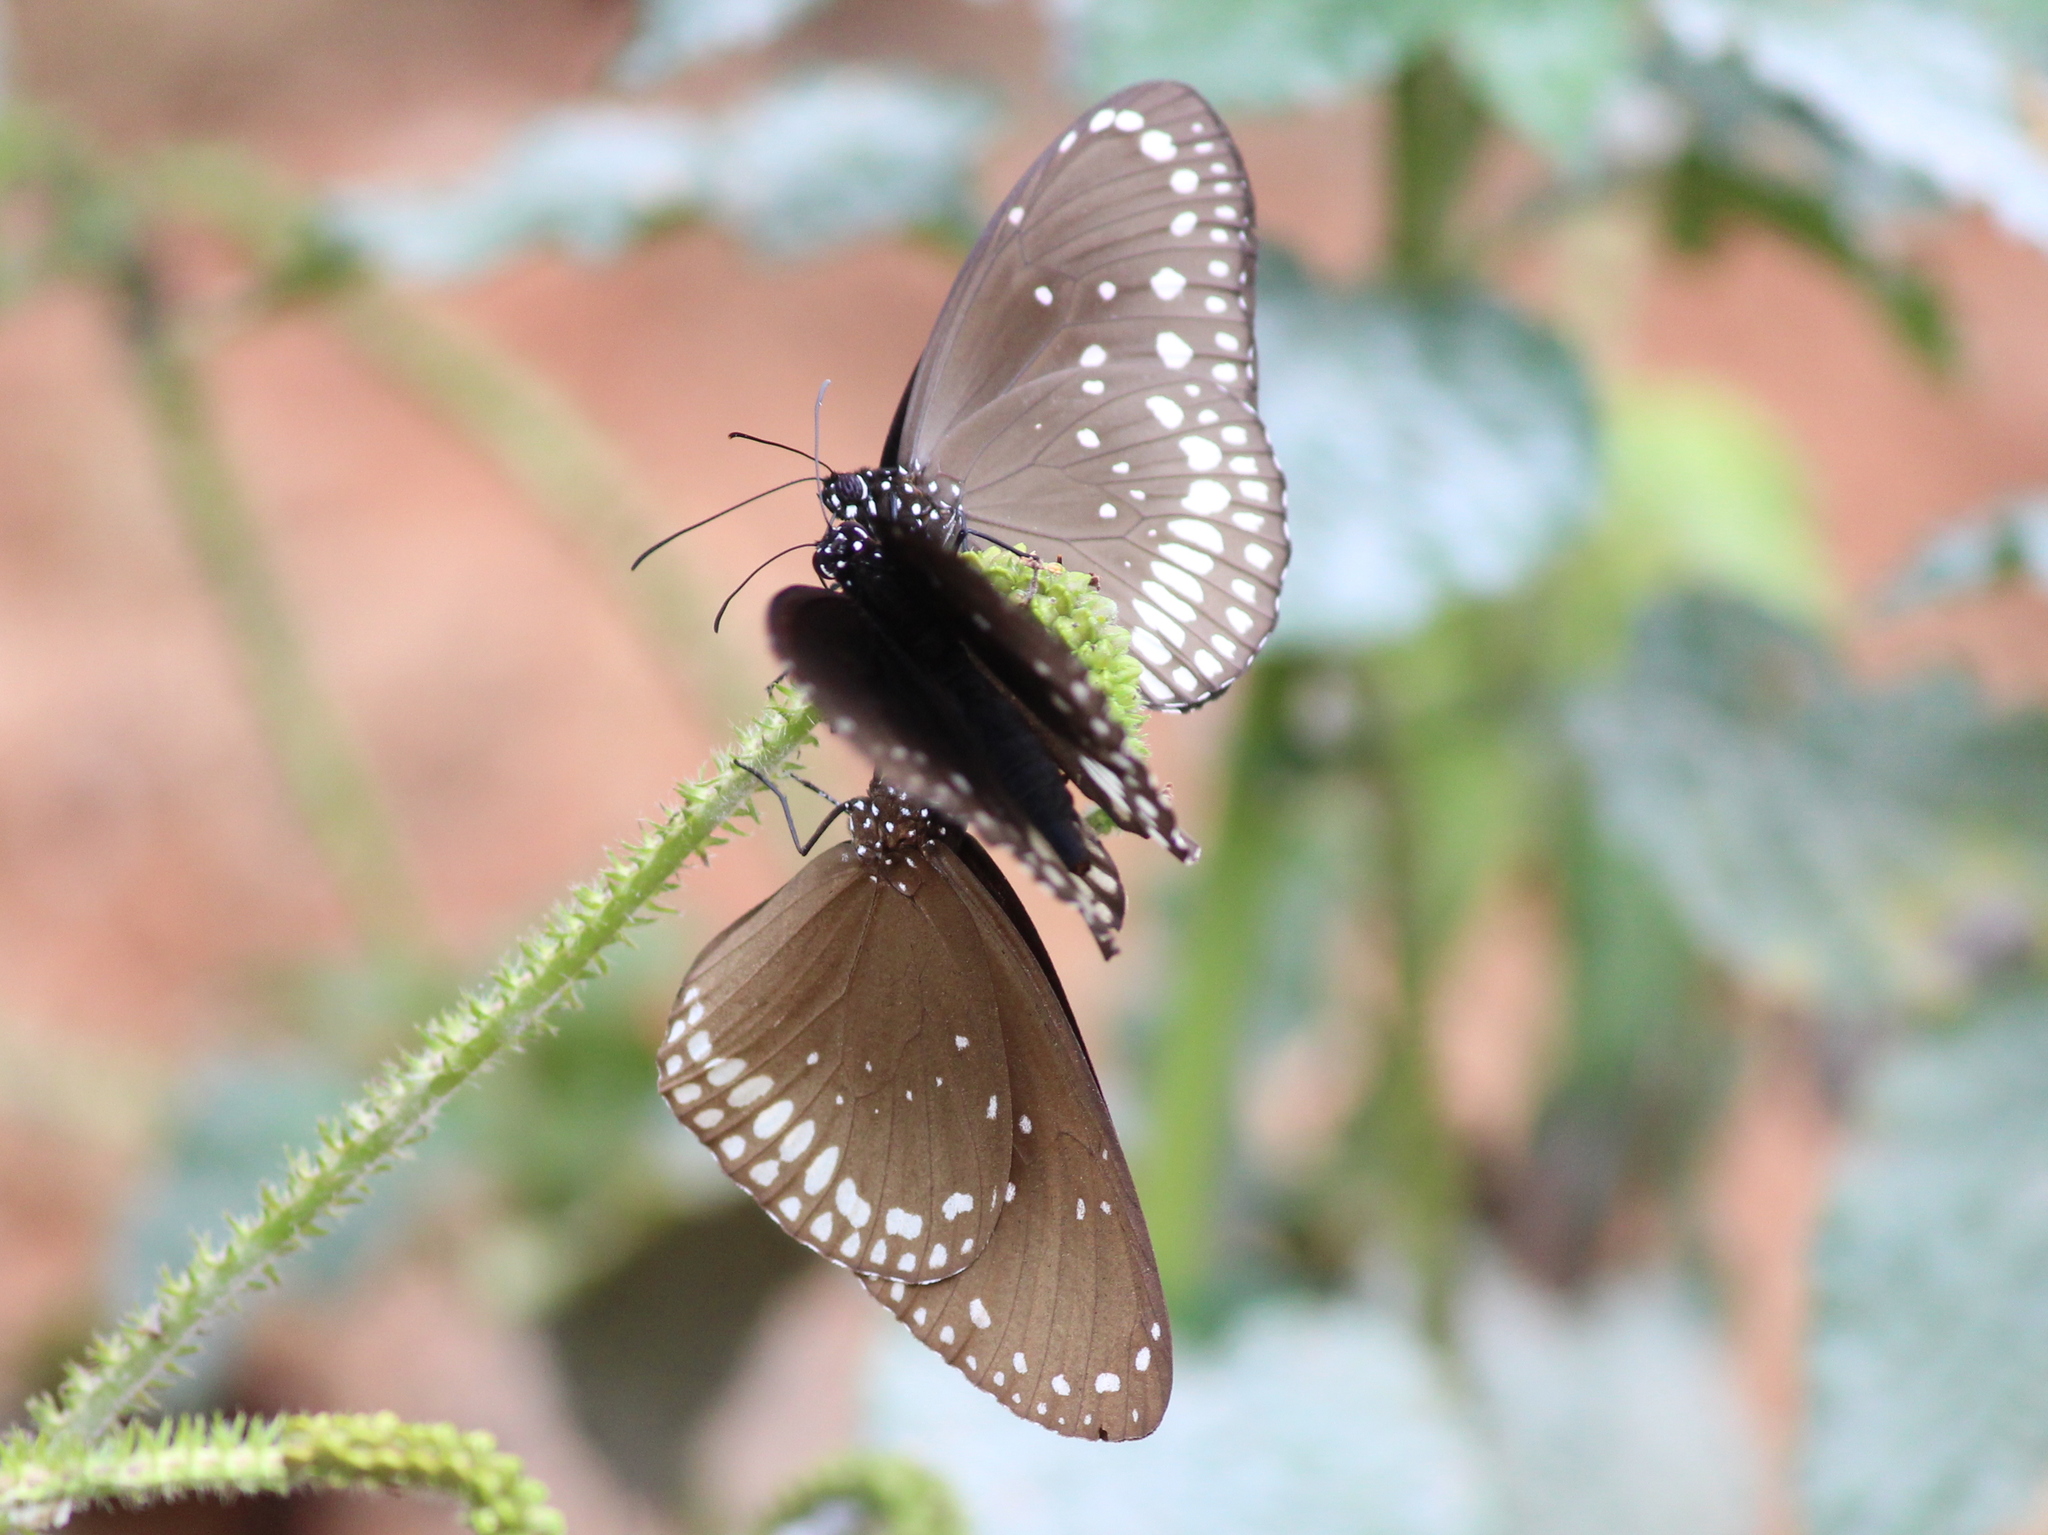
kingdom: Animalia
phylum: Arthropoda
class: Insecta
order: Lepidoptera
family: Nymphalidae
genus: Euploea
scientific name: Euploea core
